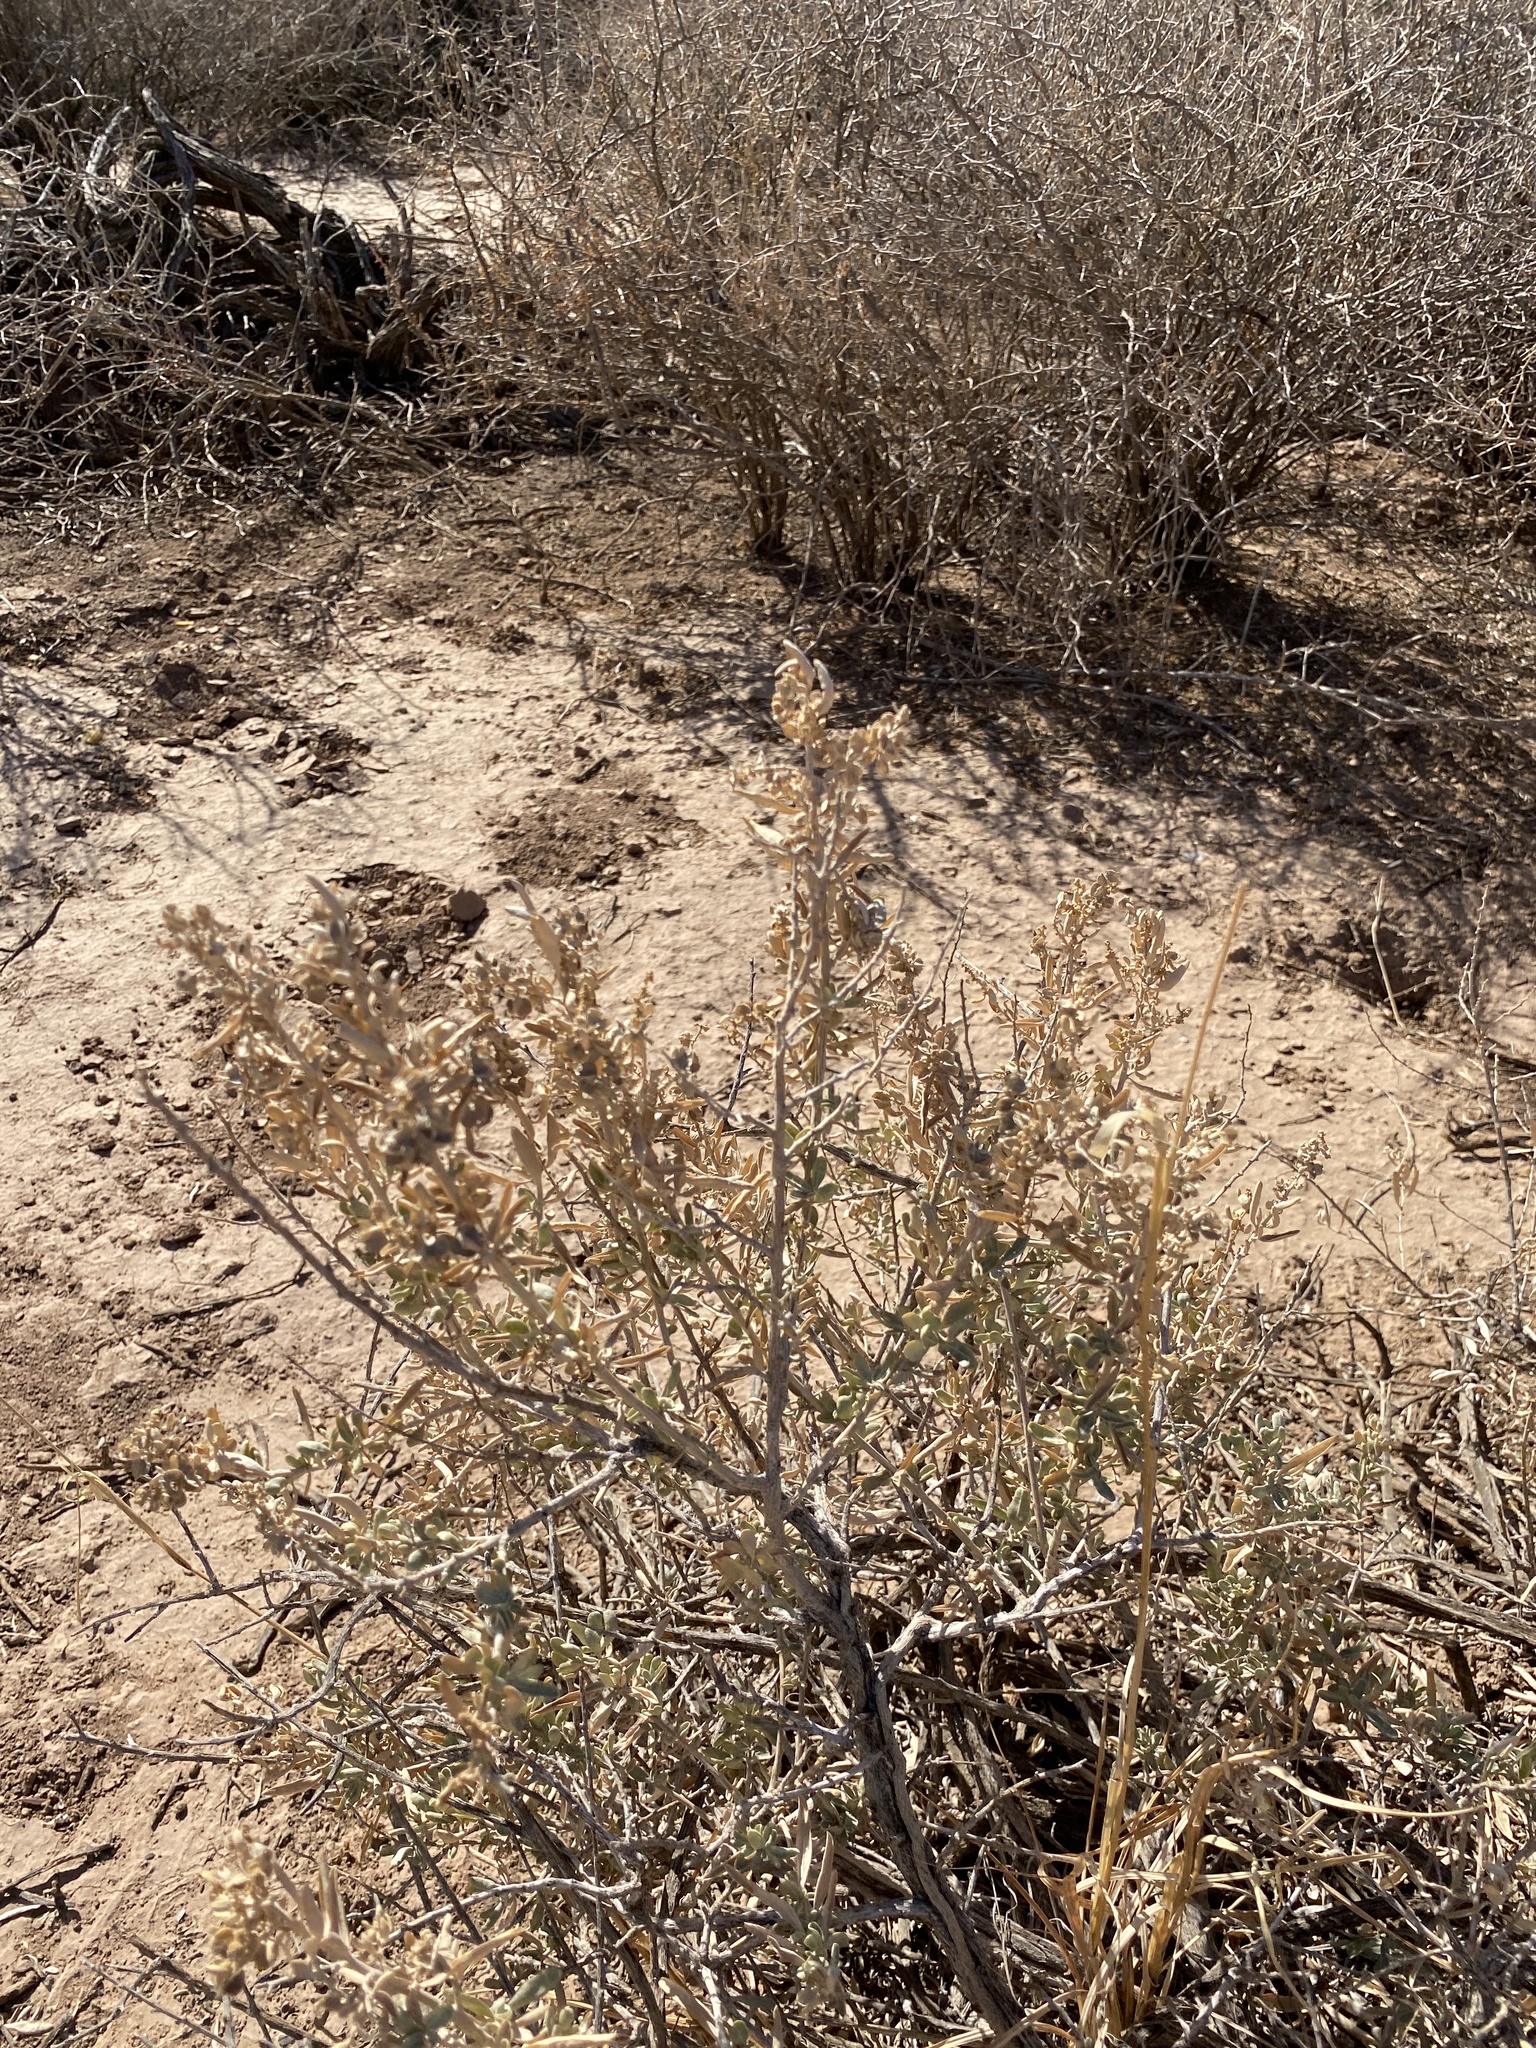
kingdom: Plantae
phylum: Tracheophyta
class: Magnoliopsida
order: Caryophyllales
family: Amaranthaceae
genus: Atriplex
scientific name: Atriplex canescens
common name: Four-wing saltbush
